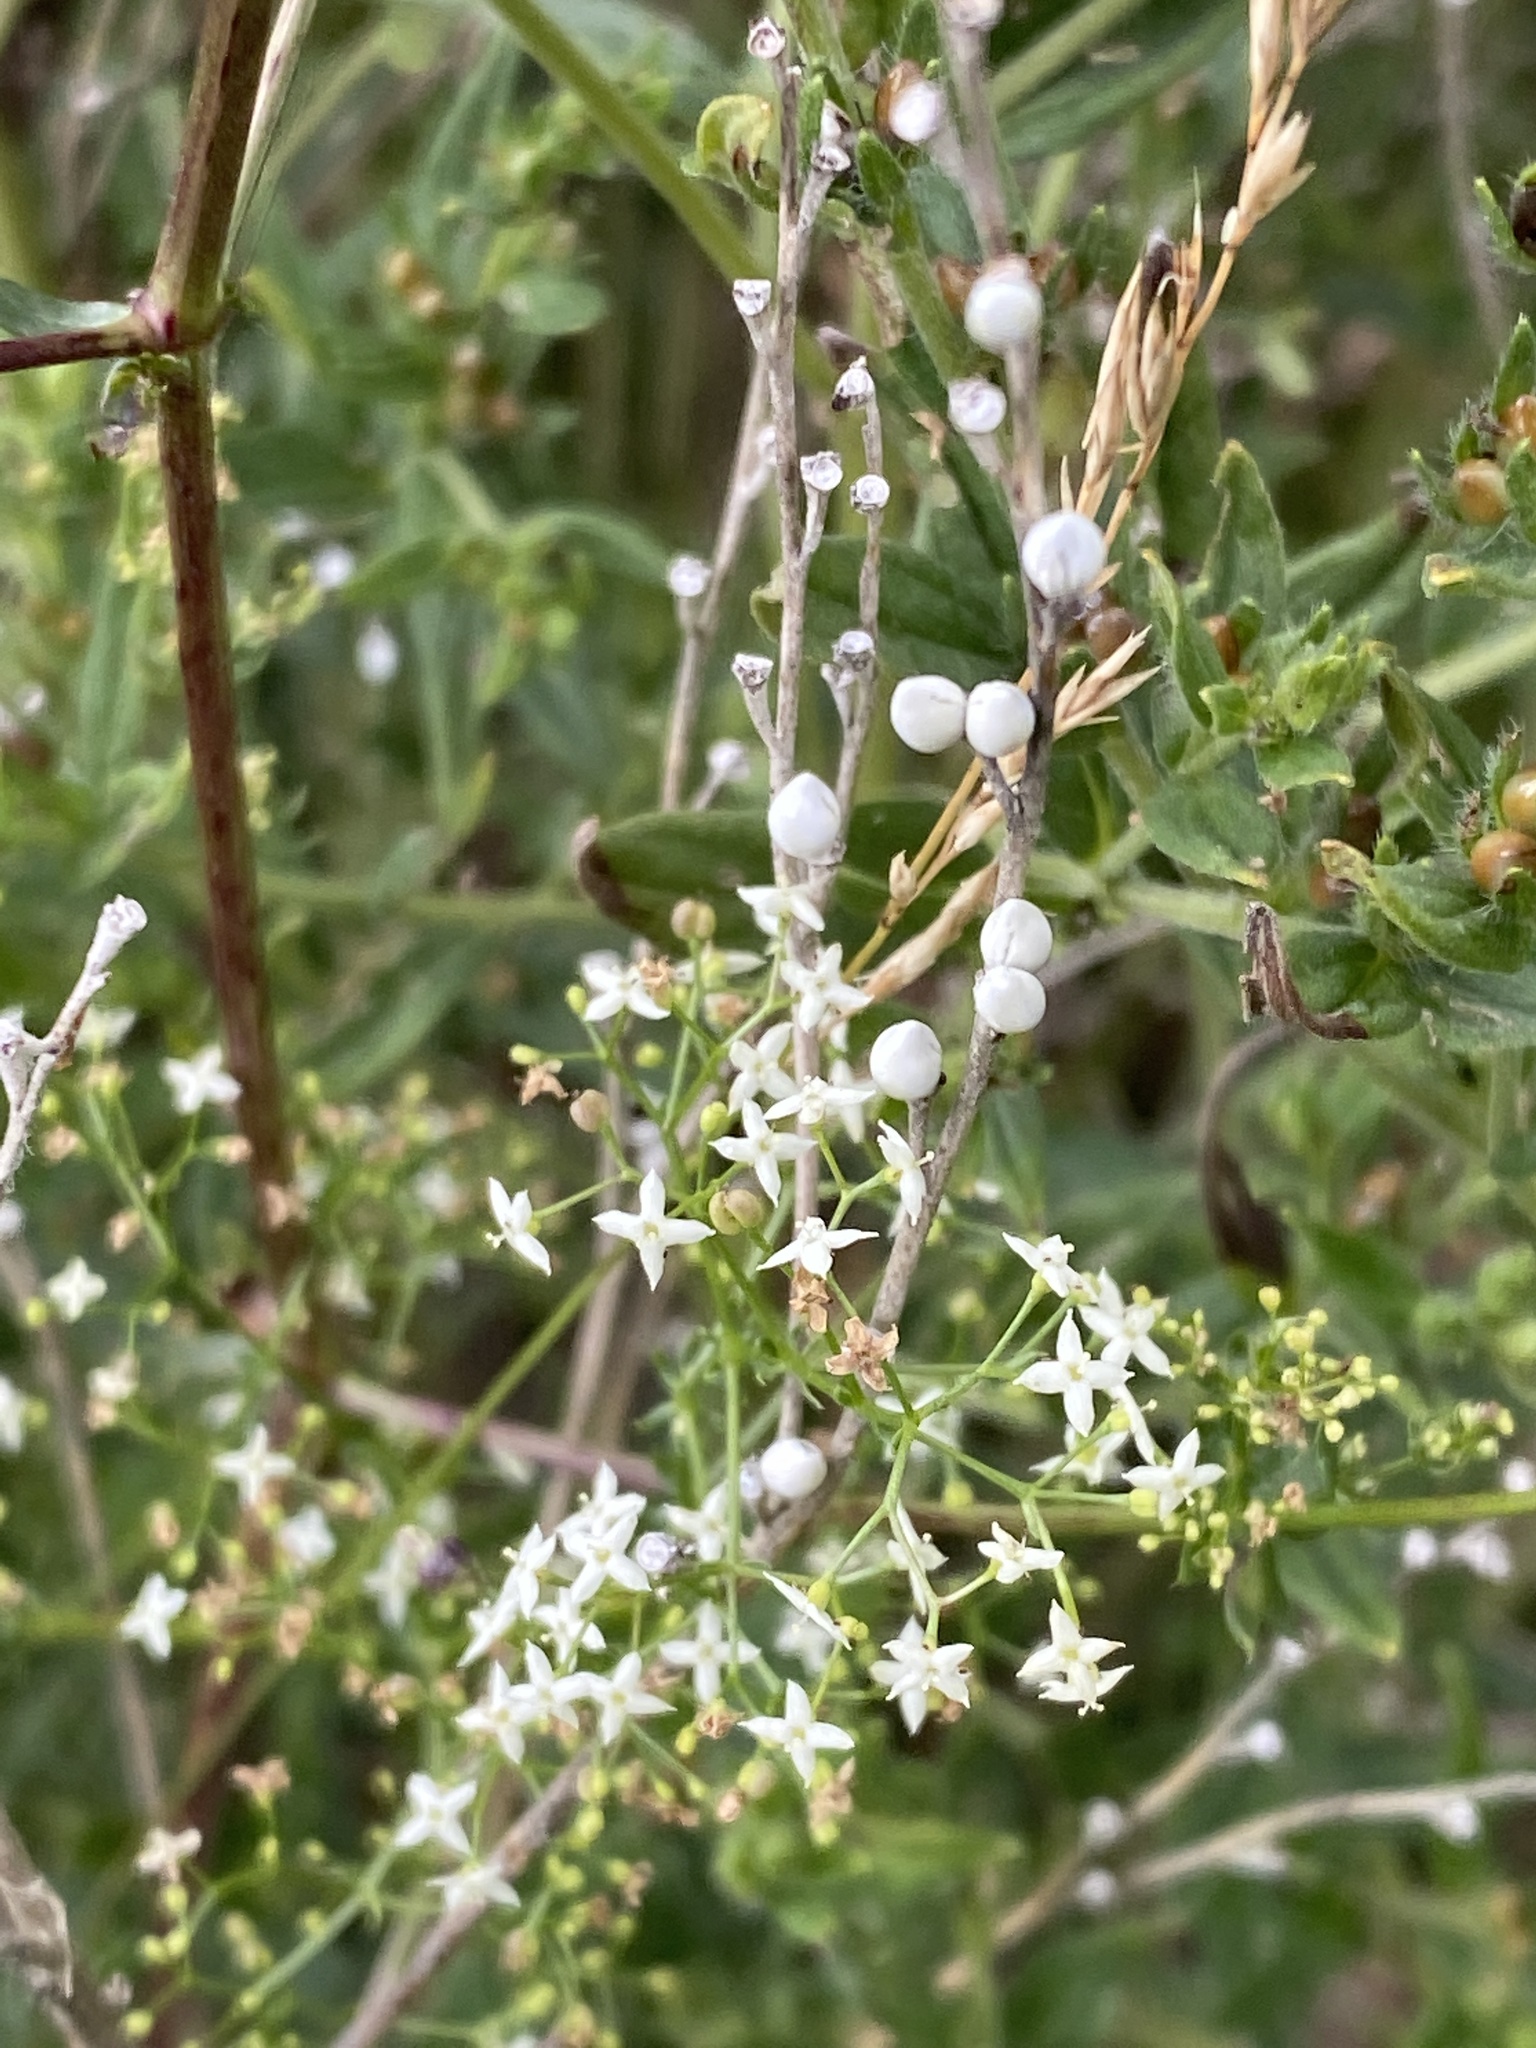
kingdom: Plantae
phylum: Tracheophyta
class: Magnoliopsida
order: Gentianales
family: Rubiaceae
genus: Galium
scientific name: Galium album
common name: White bedstraw
